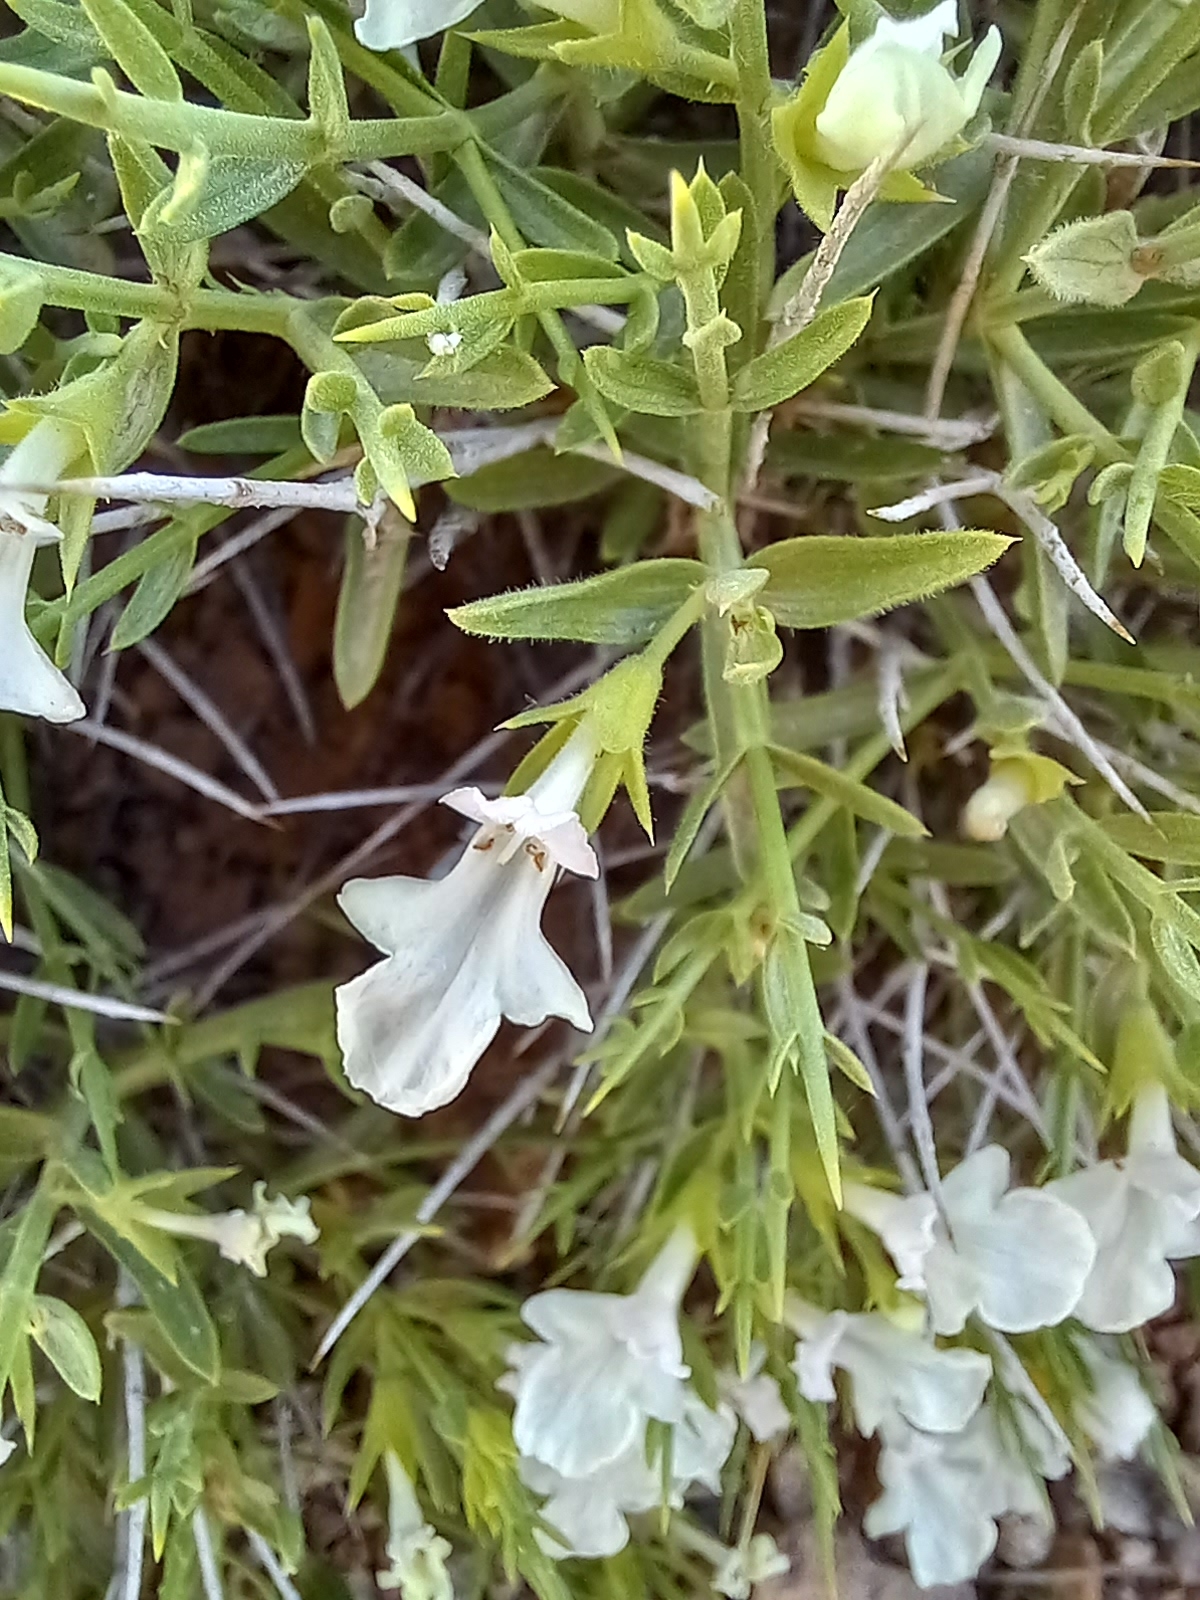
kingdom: Plantae
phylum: Tracheophyta
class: Magnoliopsida
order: Lamiales
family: Lamiaceae
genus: Stachys
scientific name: Stachys acerosa
